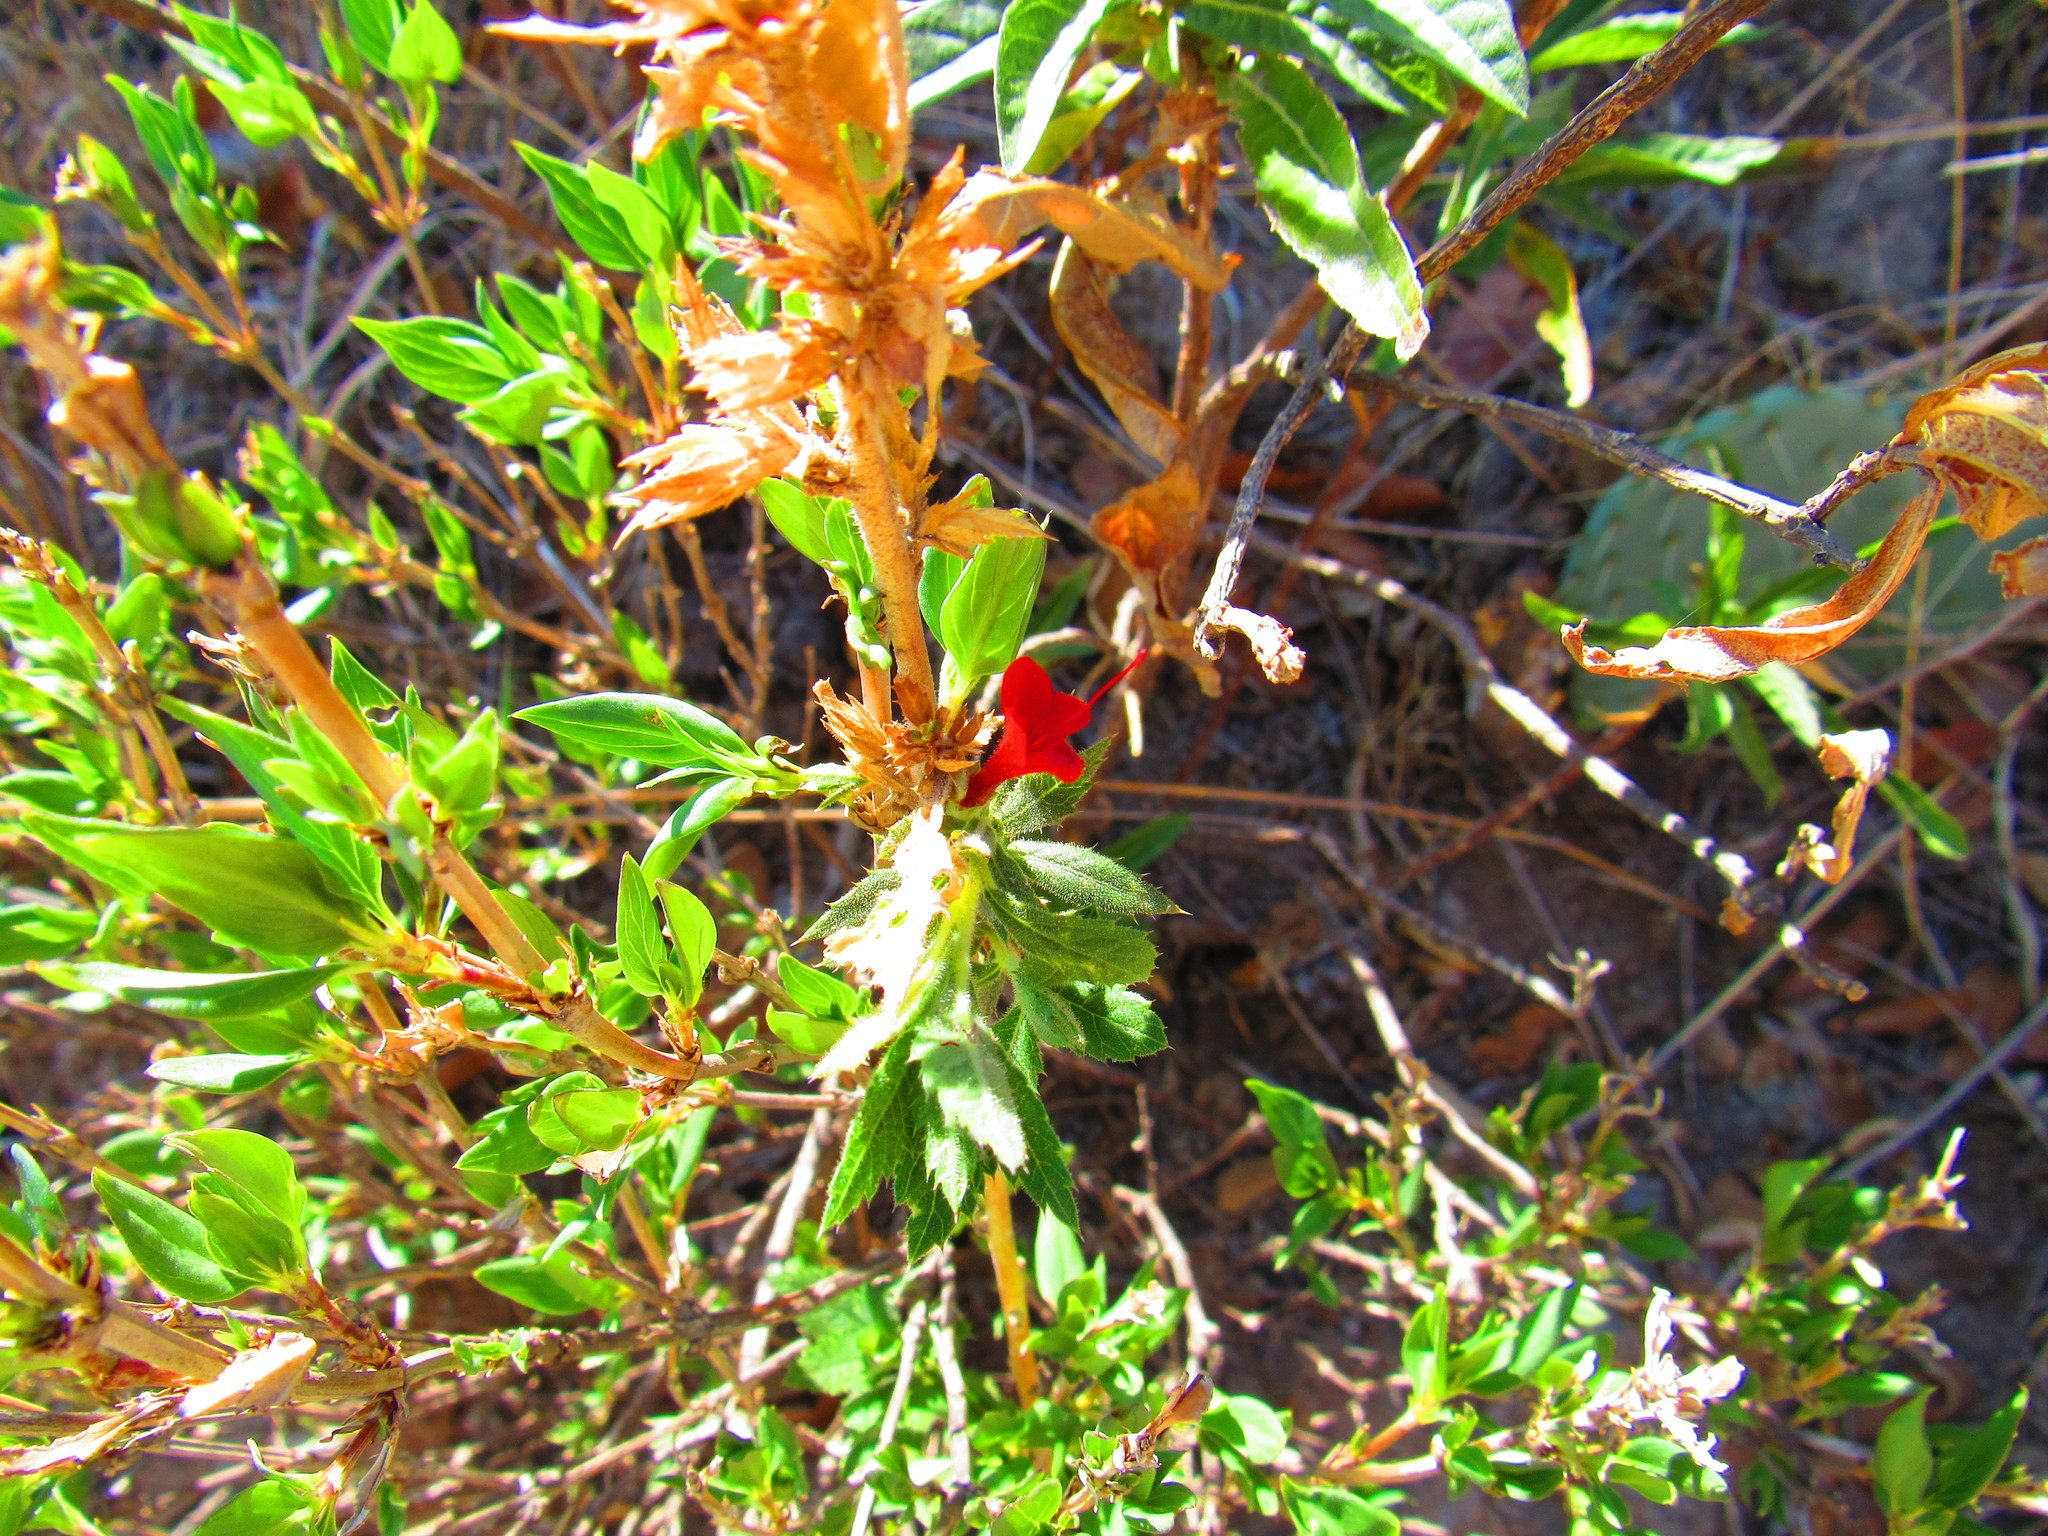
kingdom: Plantae
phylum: Tracheophyta
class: Magnoliopsida
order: Ericales
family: Polemoniaceae
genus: Loeselia
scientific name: Loeselia mexicana
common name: Mexican false calico
